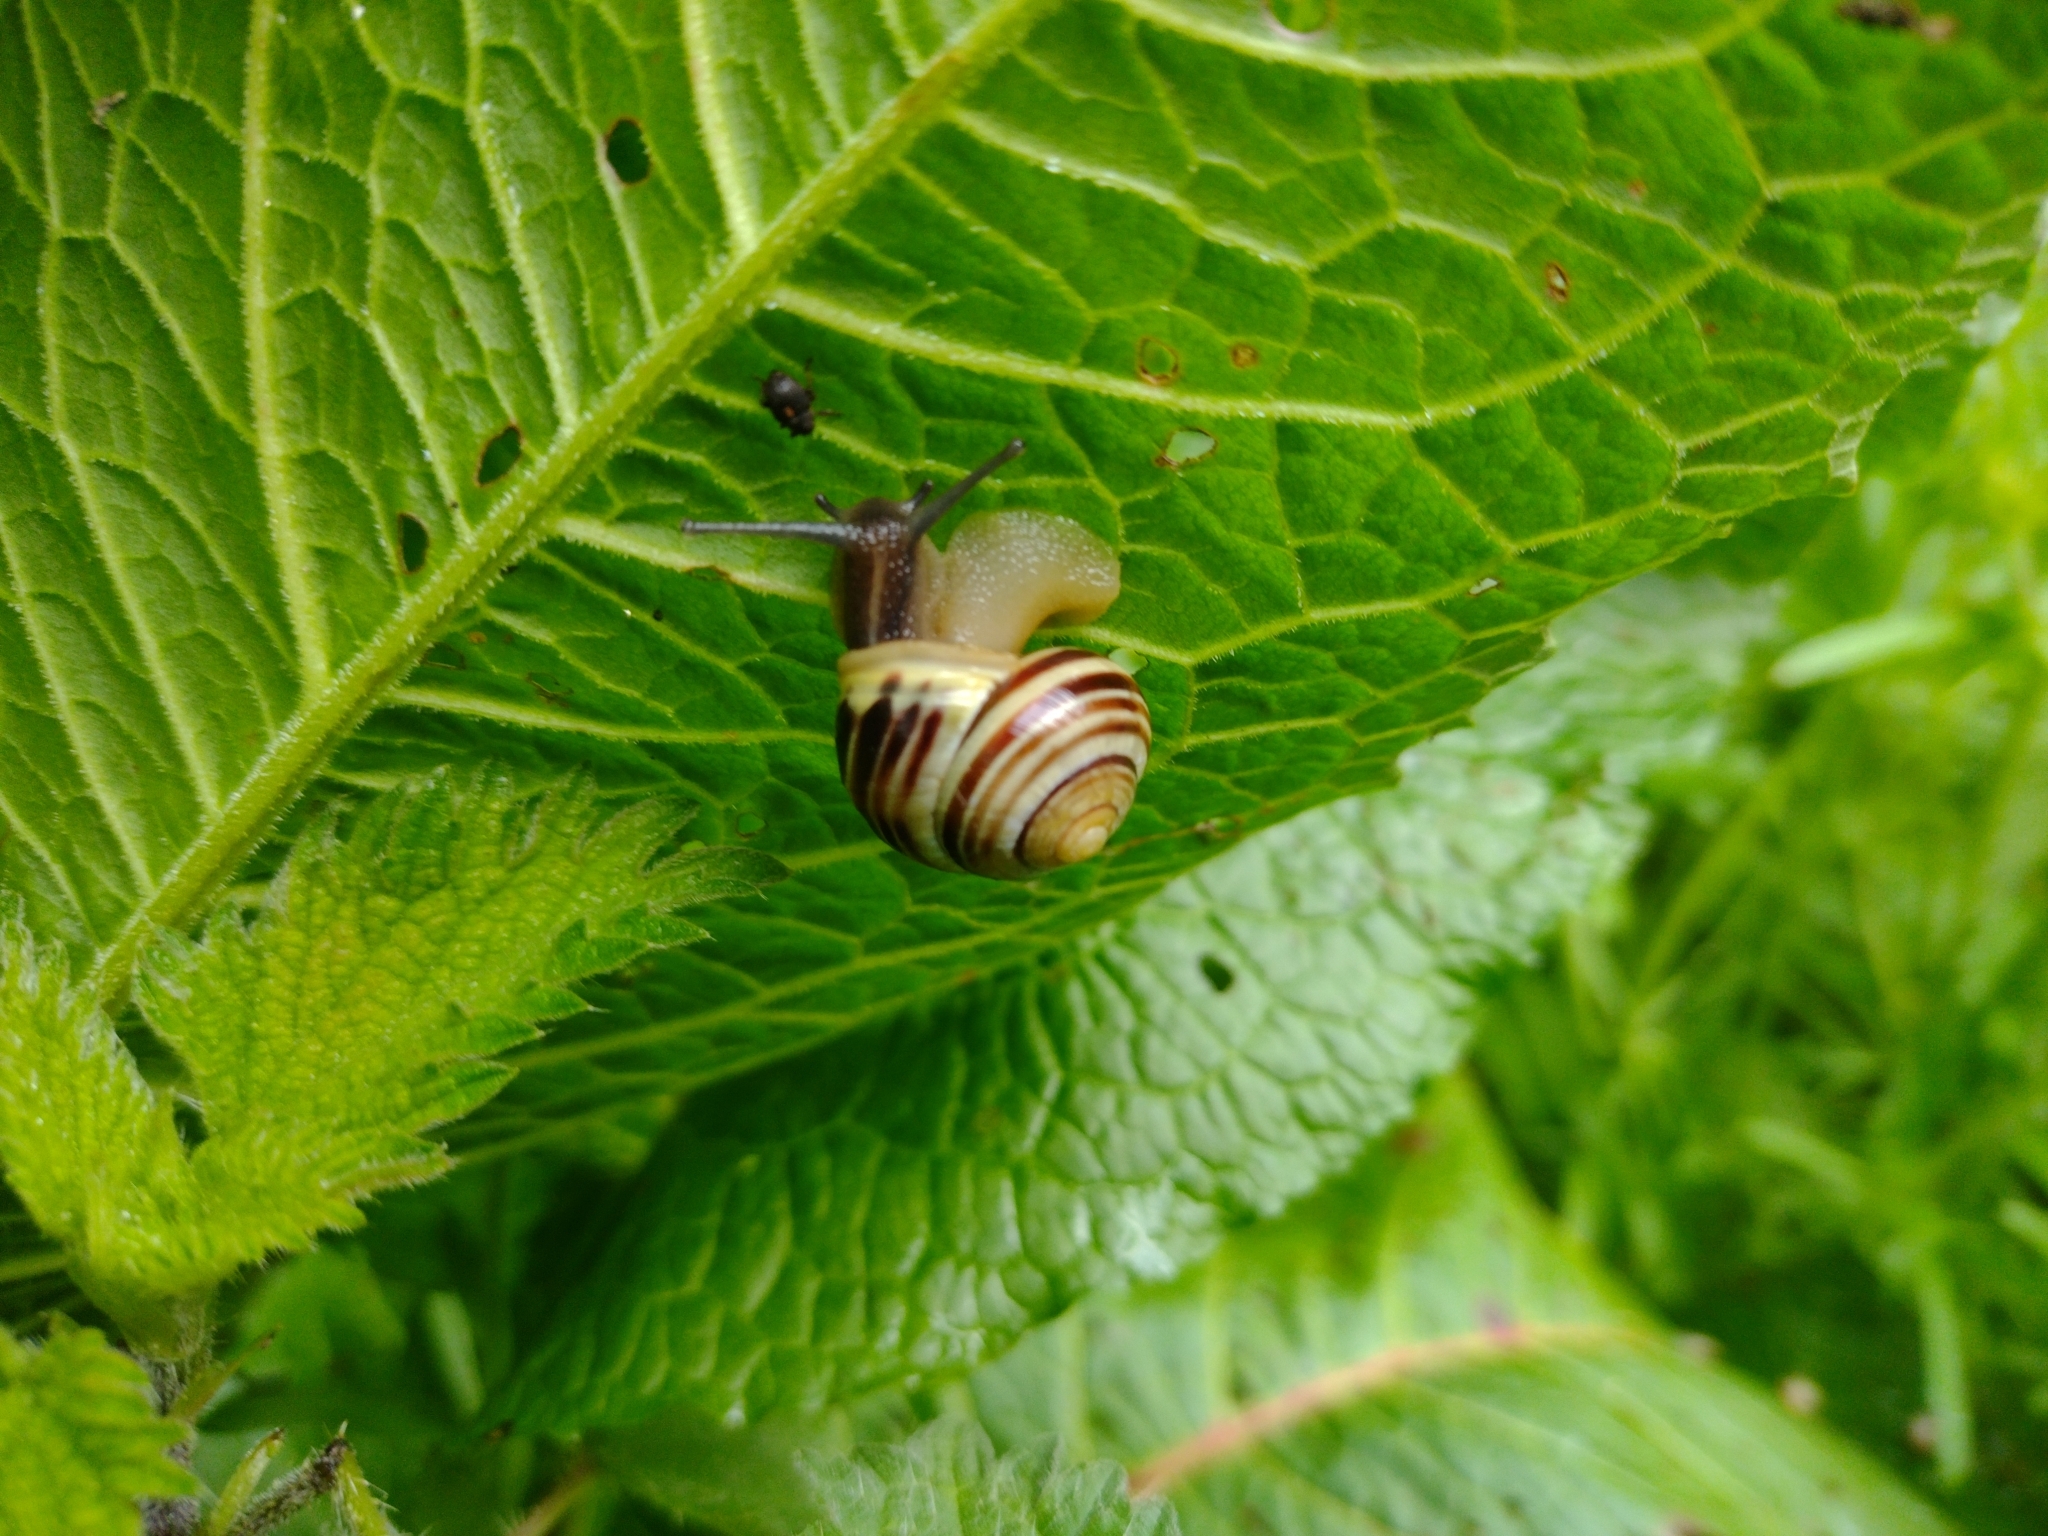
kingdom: Animalia
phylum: Mollusca
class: Gastropoda
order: Stylommatophora
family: Helicidae
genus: Cepaea
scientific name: Cepaea hortensis
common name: White-lip gardensnail
